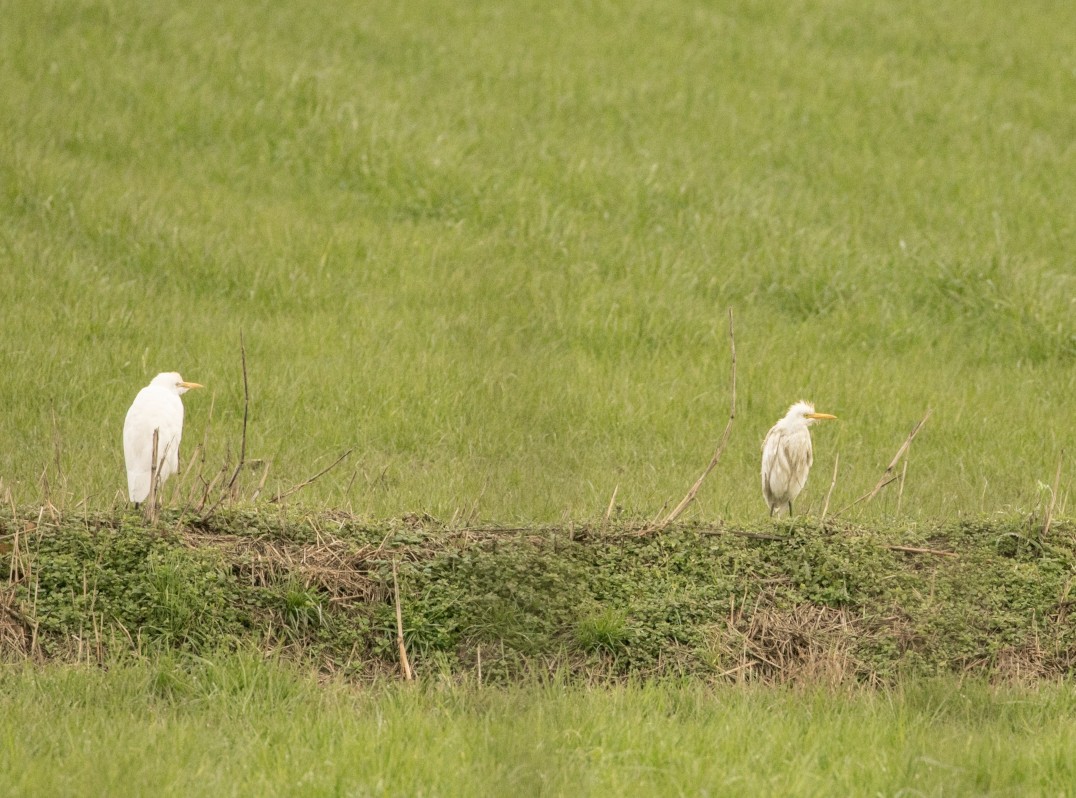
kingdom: Animalia
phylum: Chordata
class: Aves
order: Pelecaniformes
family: Ardeidae
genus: Bubulcus
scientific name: Bubulcus ibis
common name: Cattle egret
